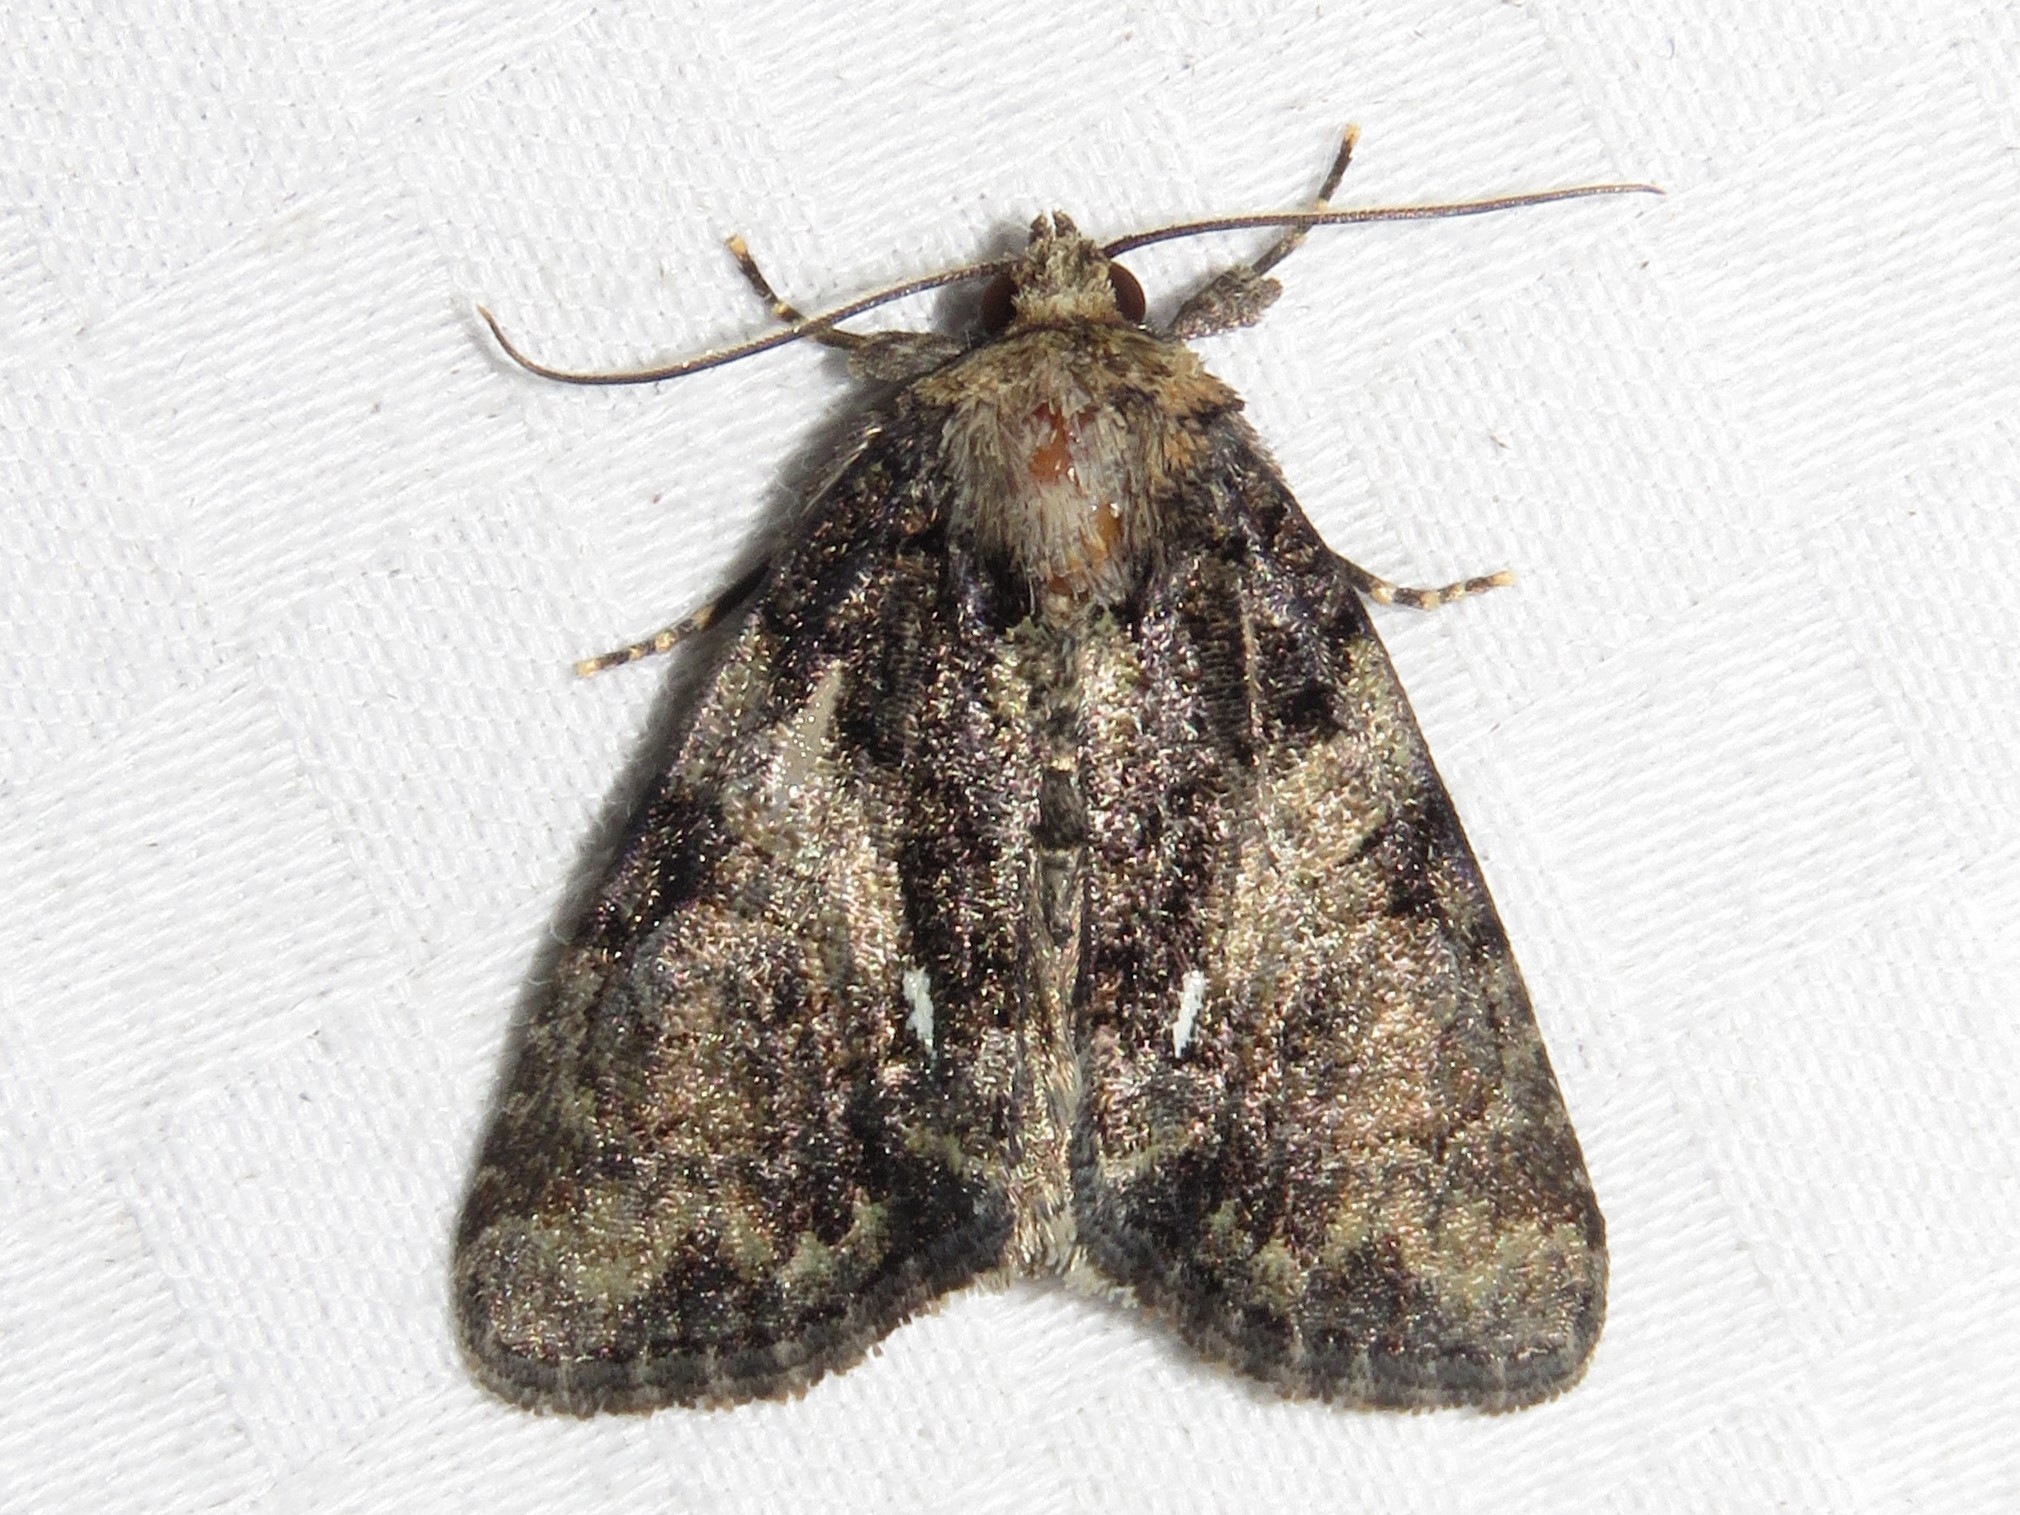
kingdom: Animalia
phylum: Arthropoda
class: Insecta
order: Lepidoptera
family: Noctuidae
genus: Chytonix
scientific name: Chytonix palliatricula
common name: Cloaked marvel
